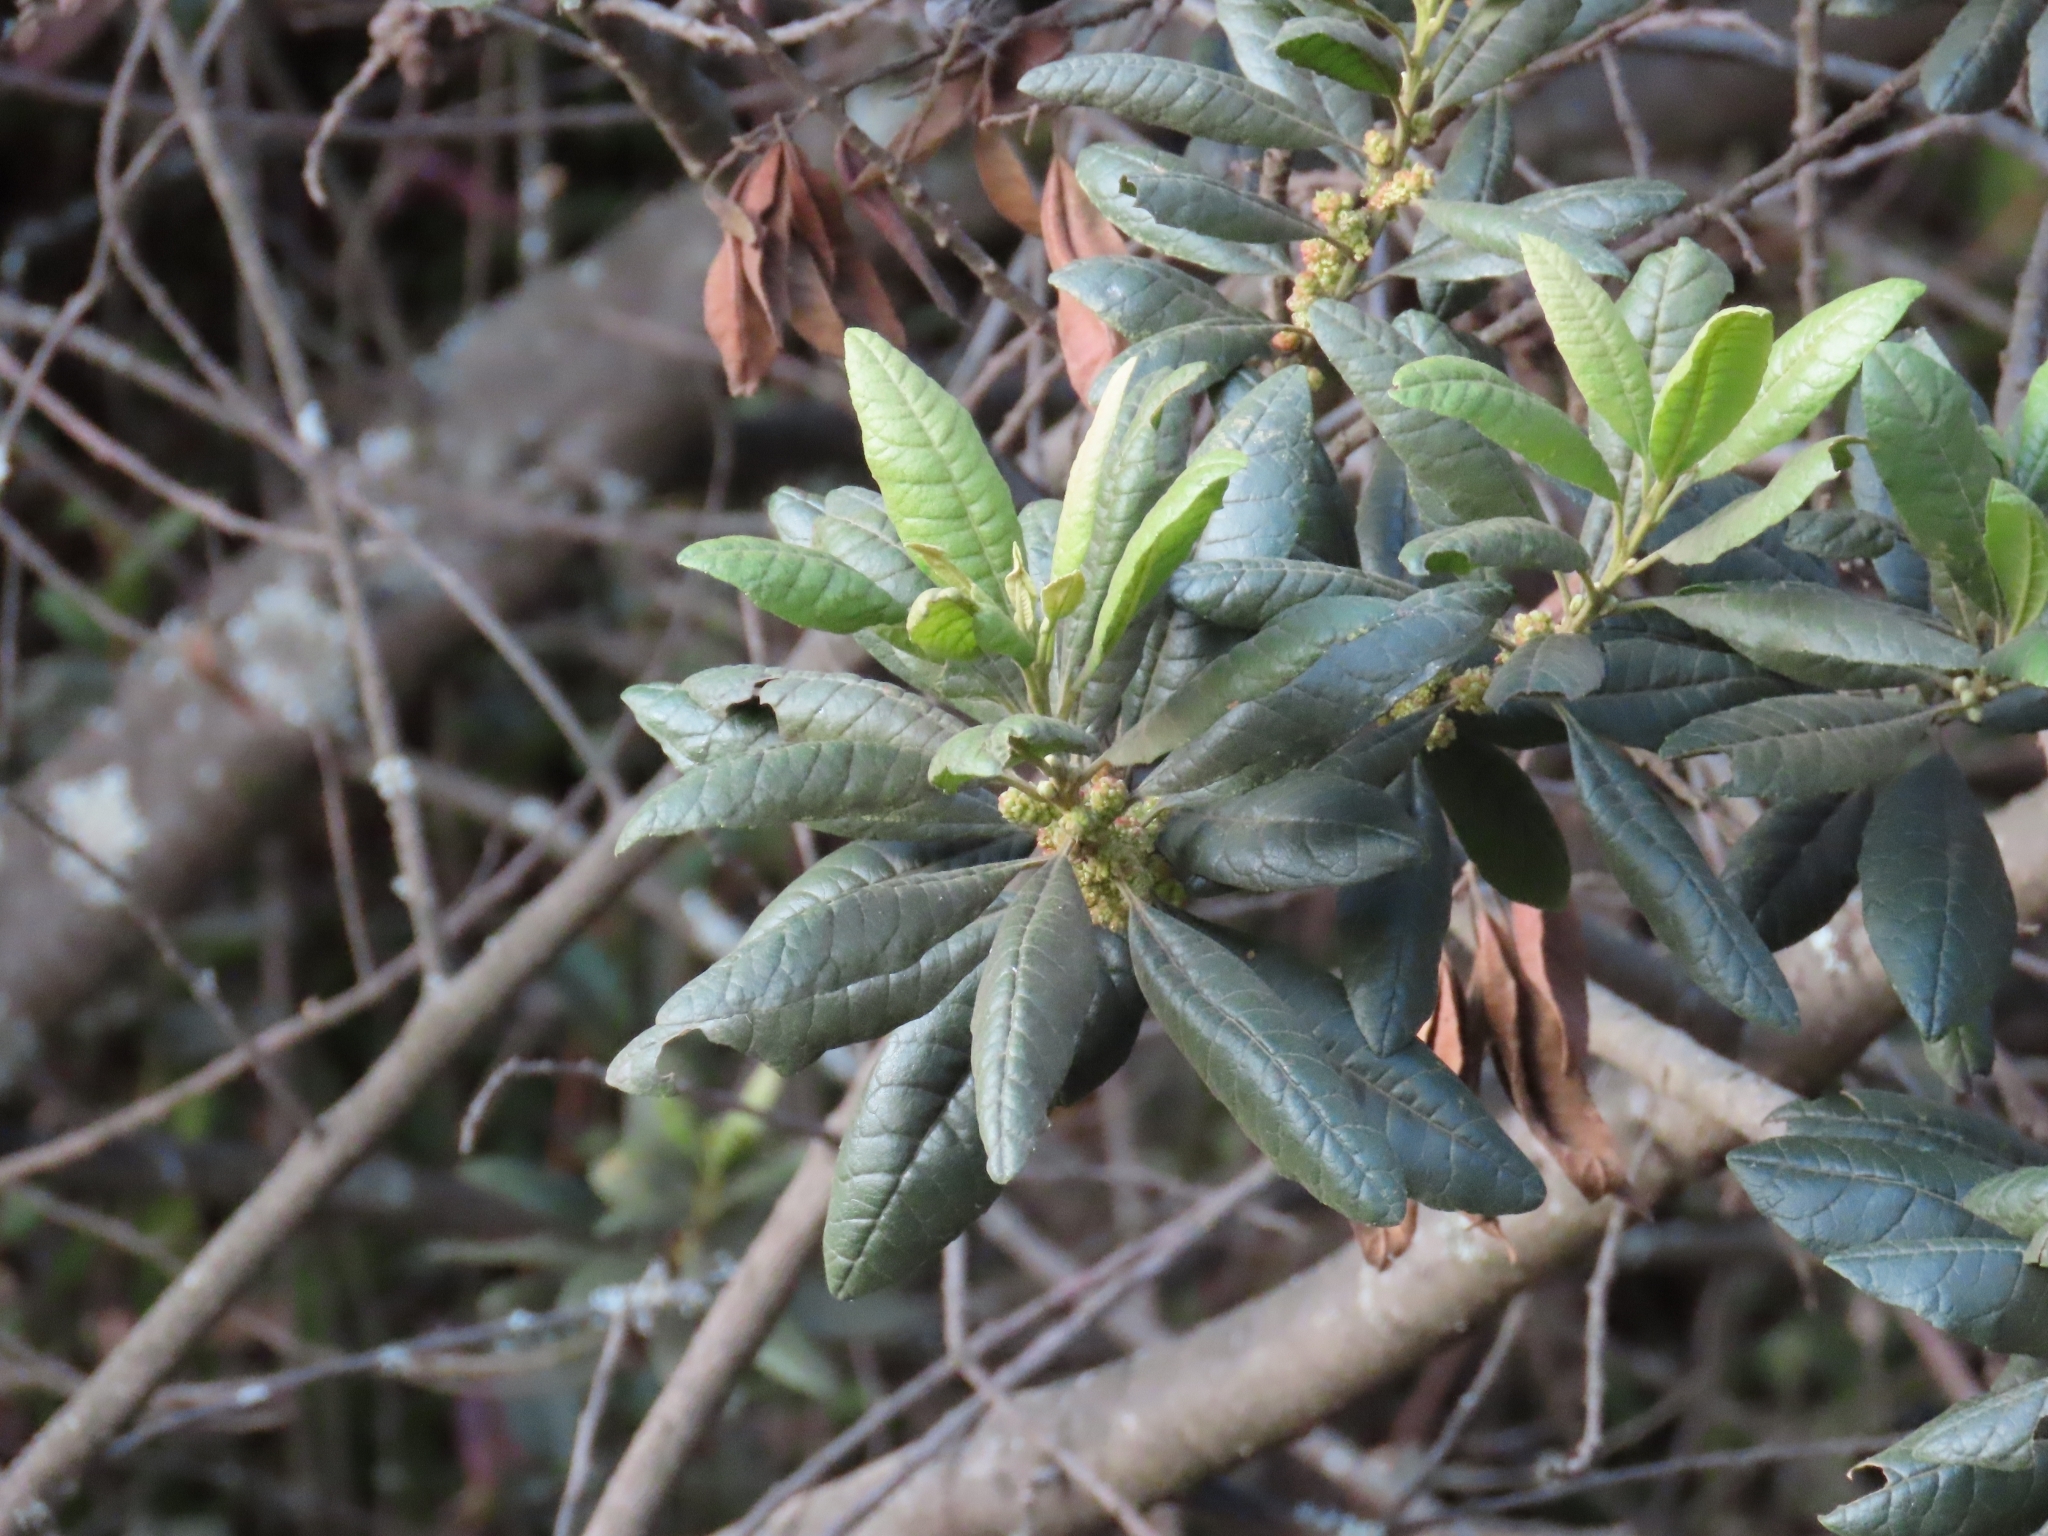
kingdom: Plantae
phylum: Tracheophyta
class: Magnoliopsida
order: Fagales
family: Myricaceae
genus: Morella
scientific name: Morella pubescens
